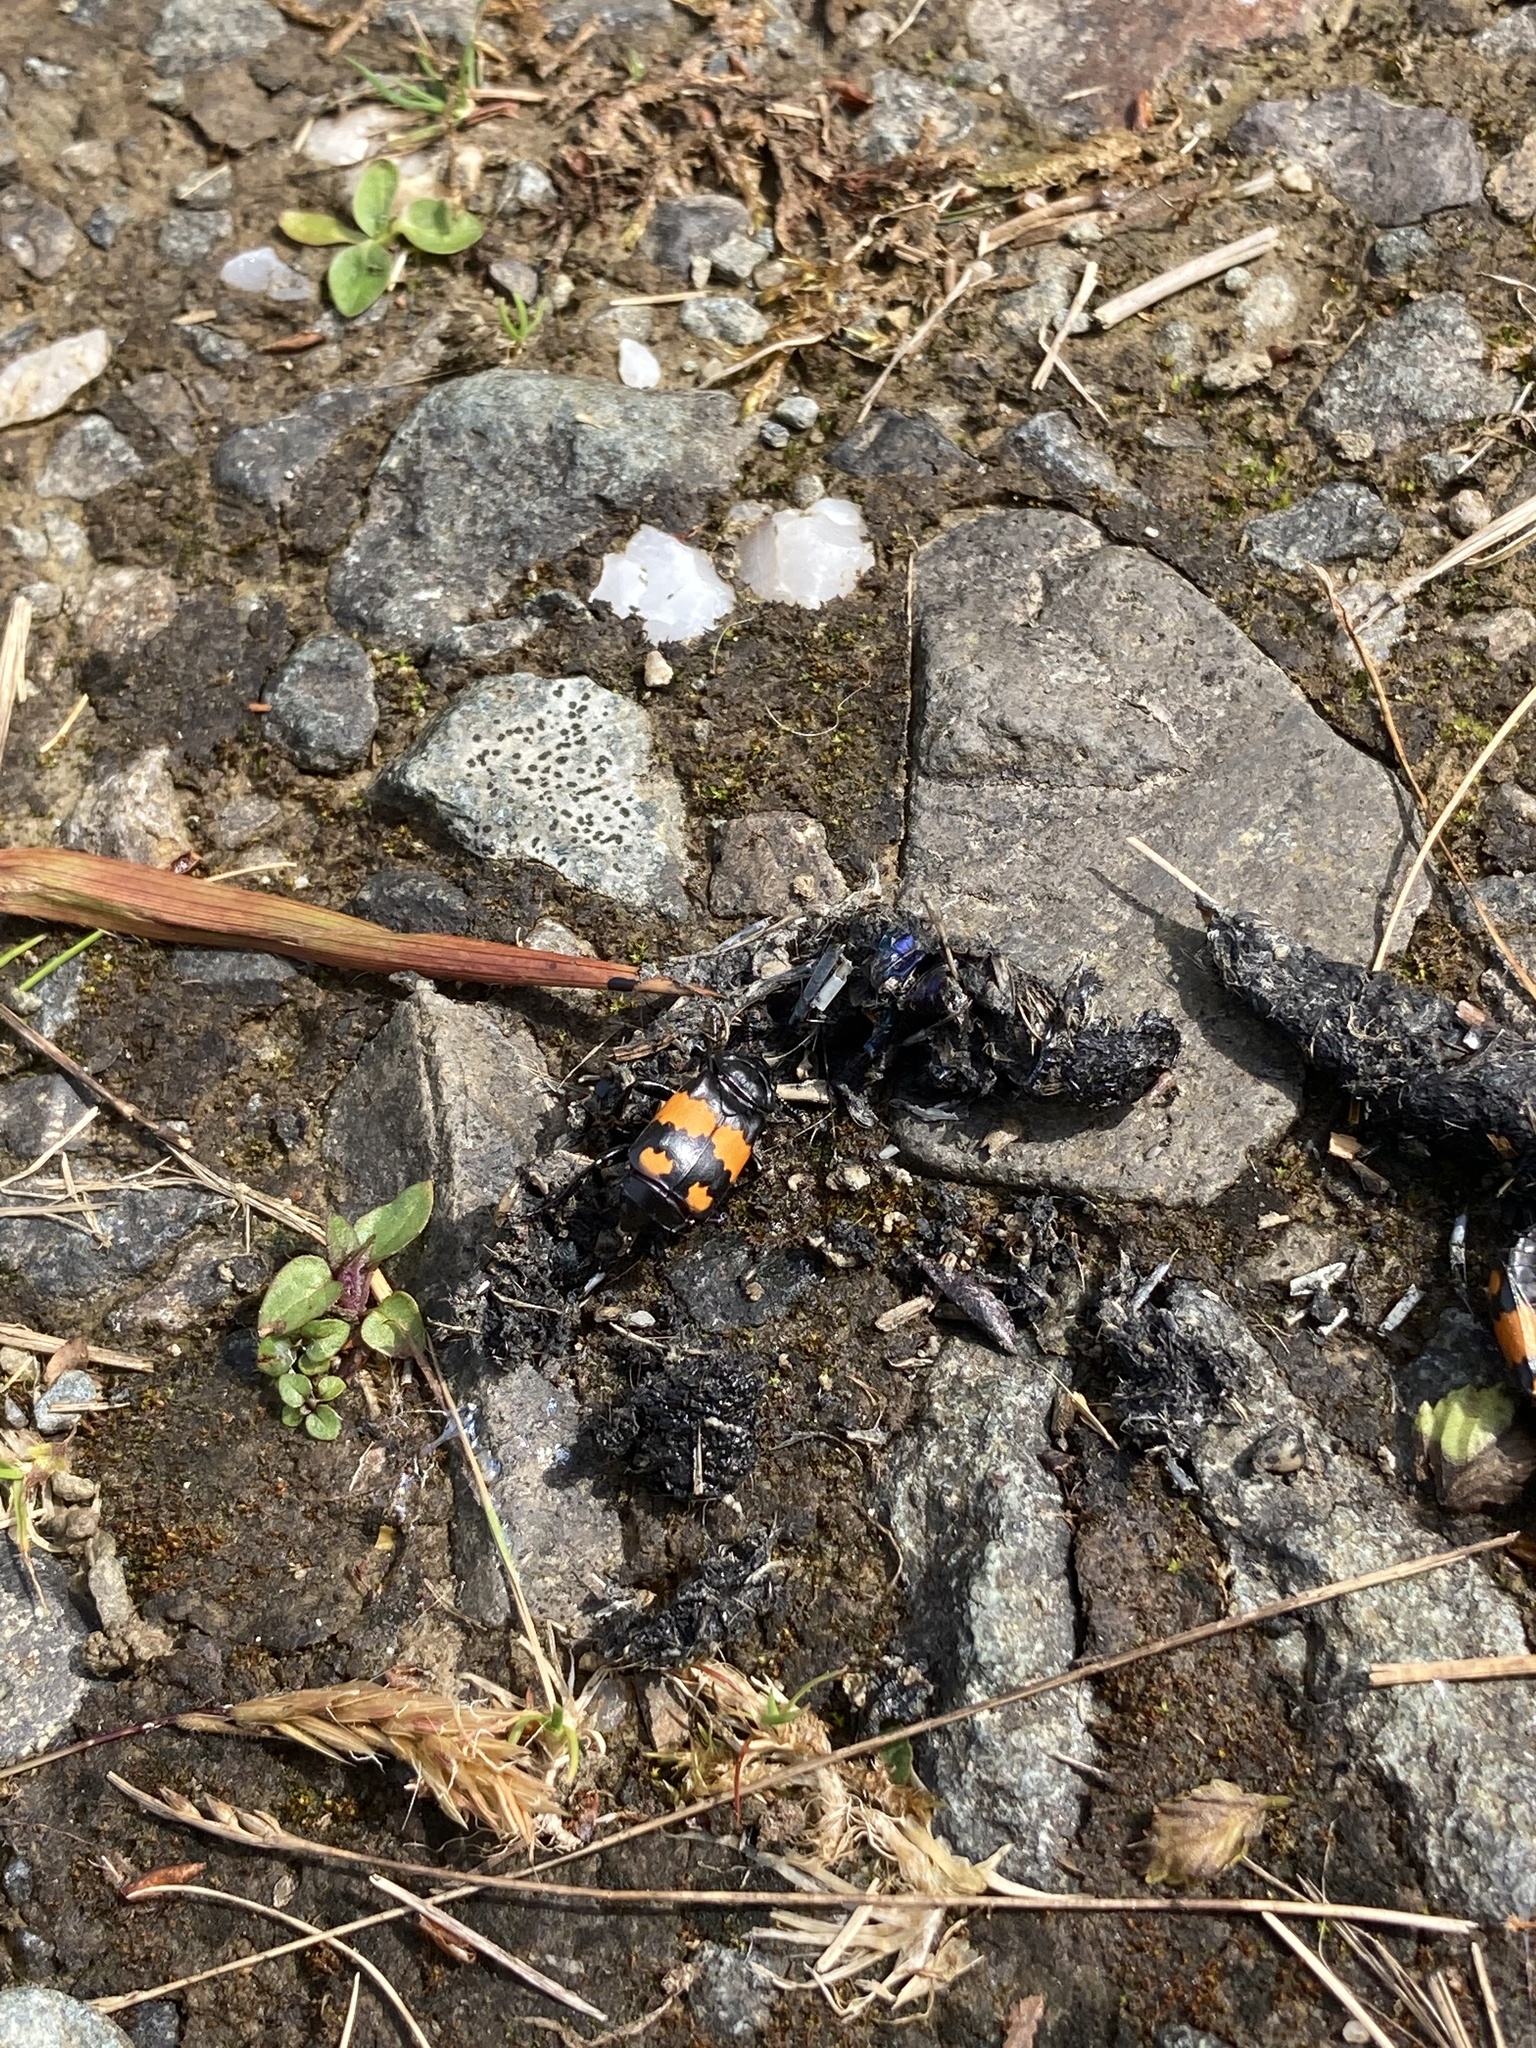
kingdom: Animalia
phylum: Arthropoda
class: Insecta
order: Coleoptera
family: Staphylinidae
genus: Nicrophorus
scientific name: Nicrophorus vespilloides
